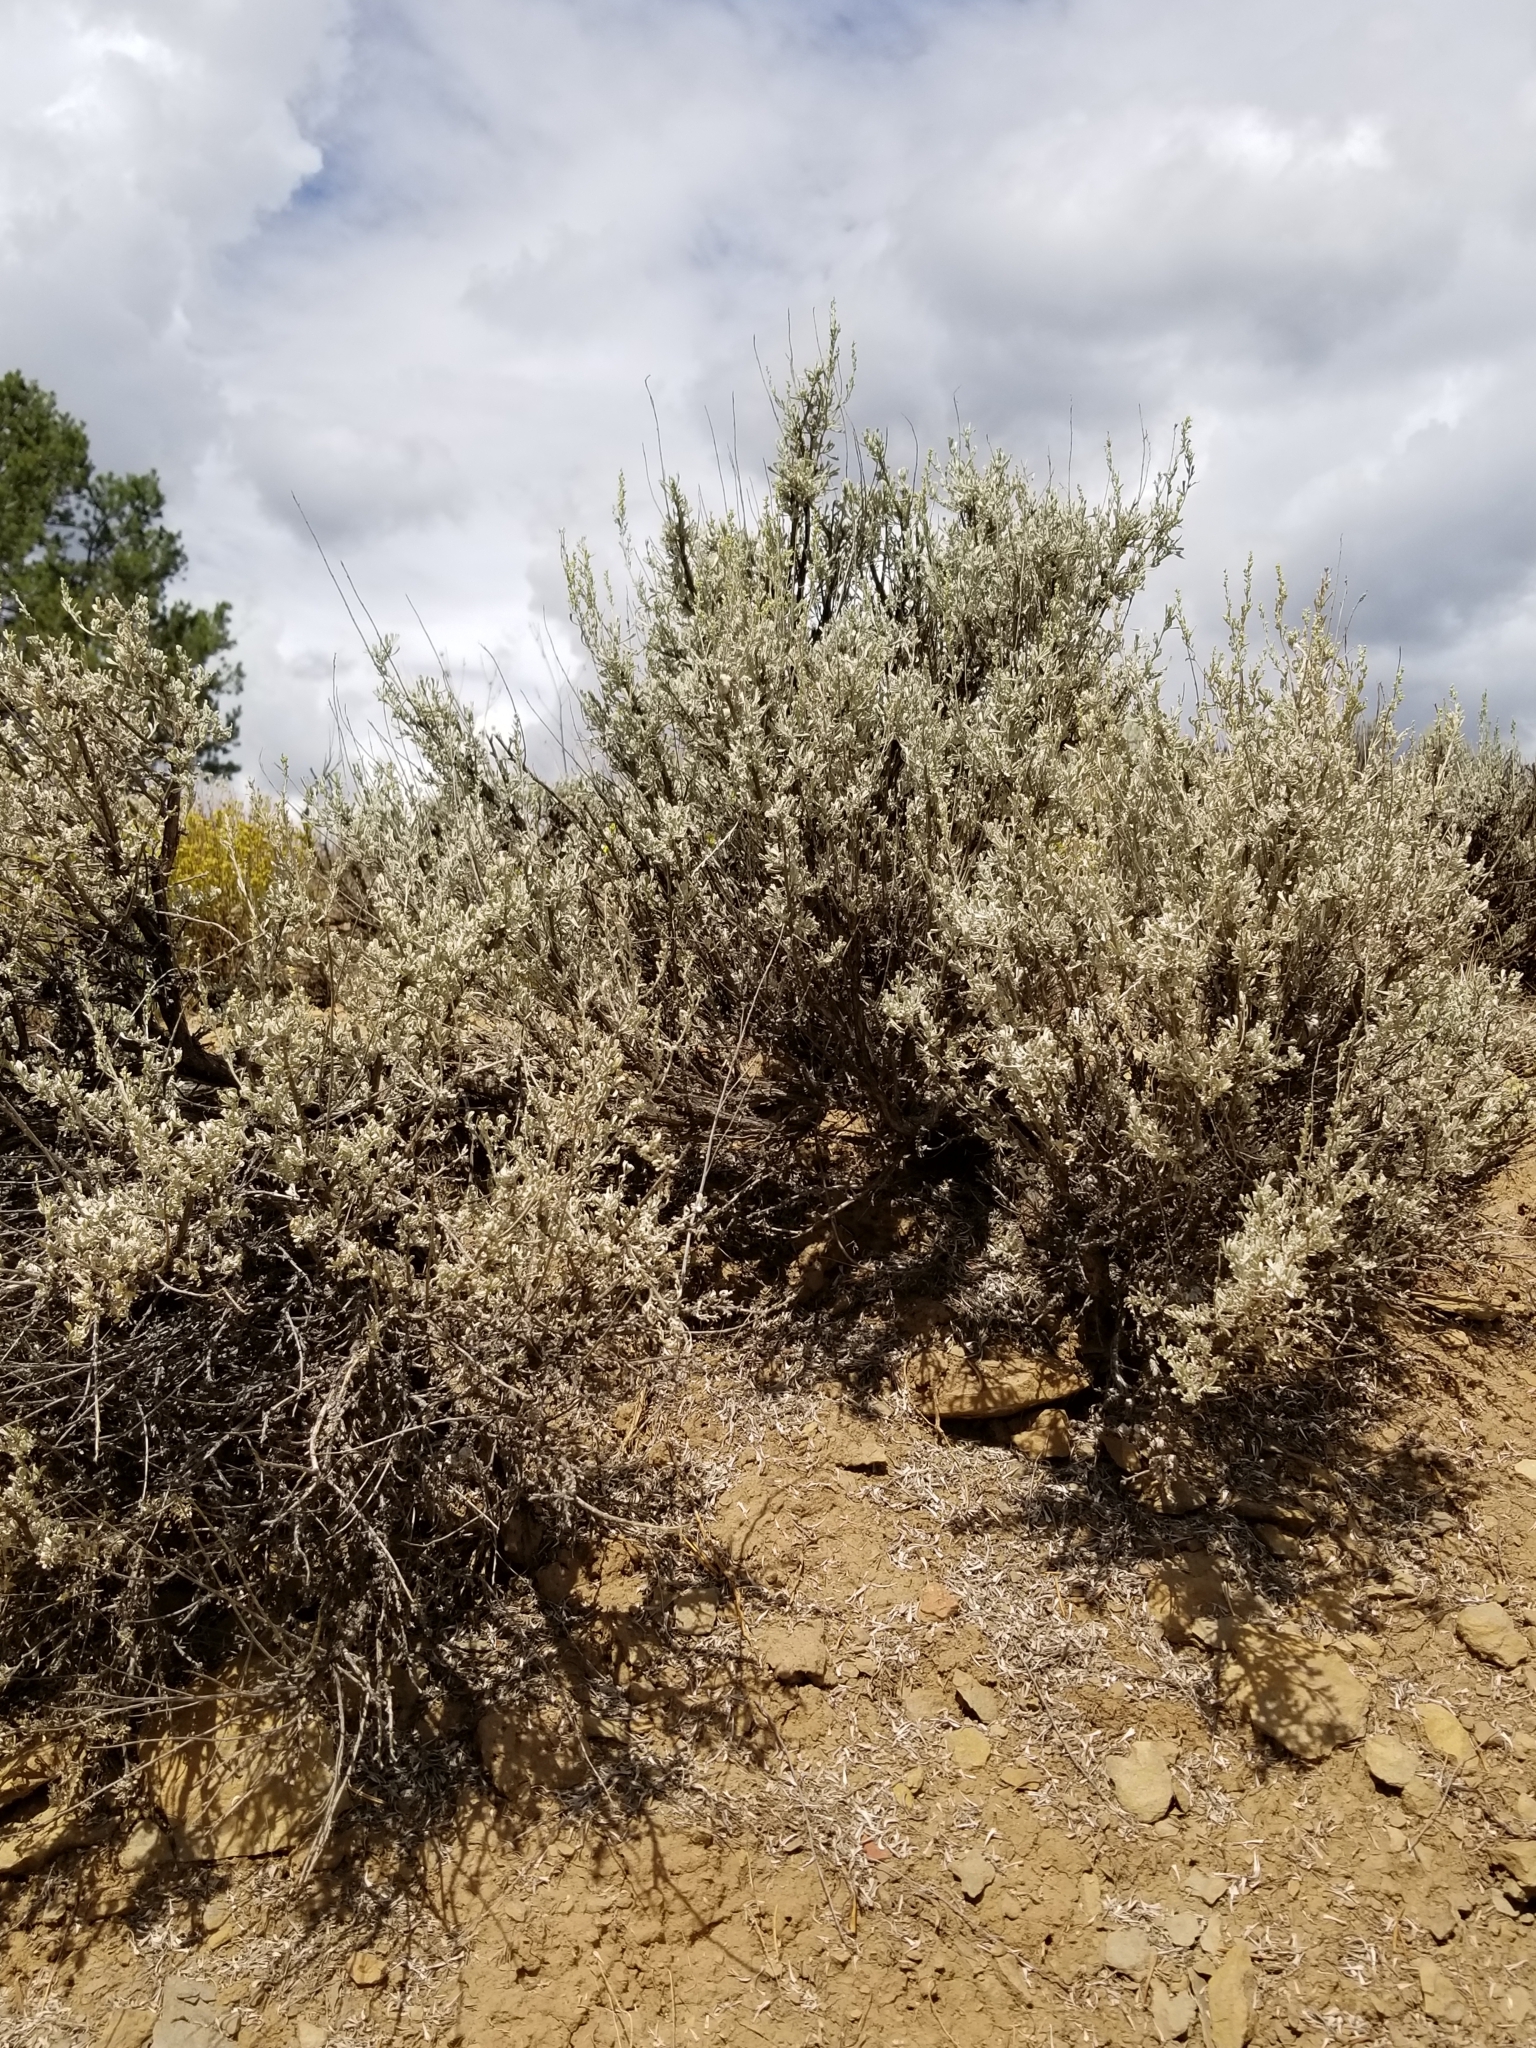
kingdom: Plantae
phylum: Tracheophyta
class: Magnoliopsida
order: Asterales
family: Asteraceae
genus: Artemisia
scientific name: Artemisia tridentata
